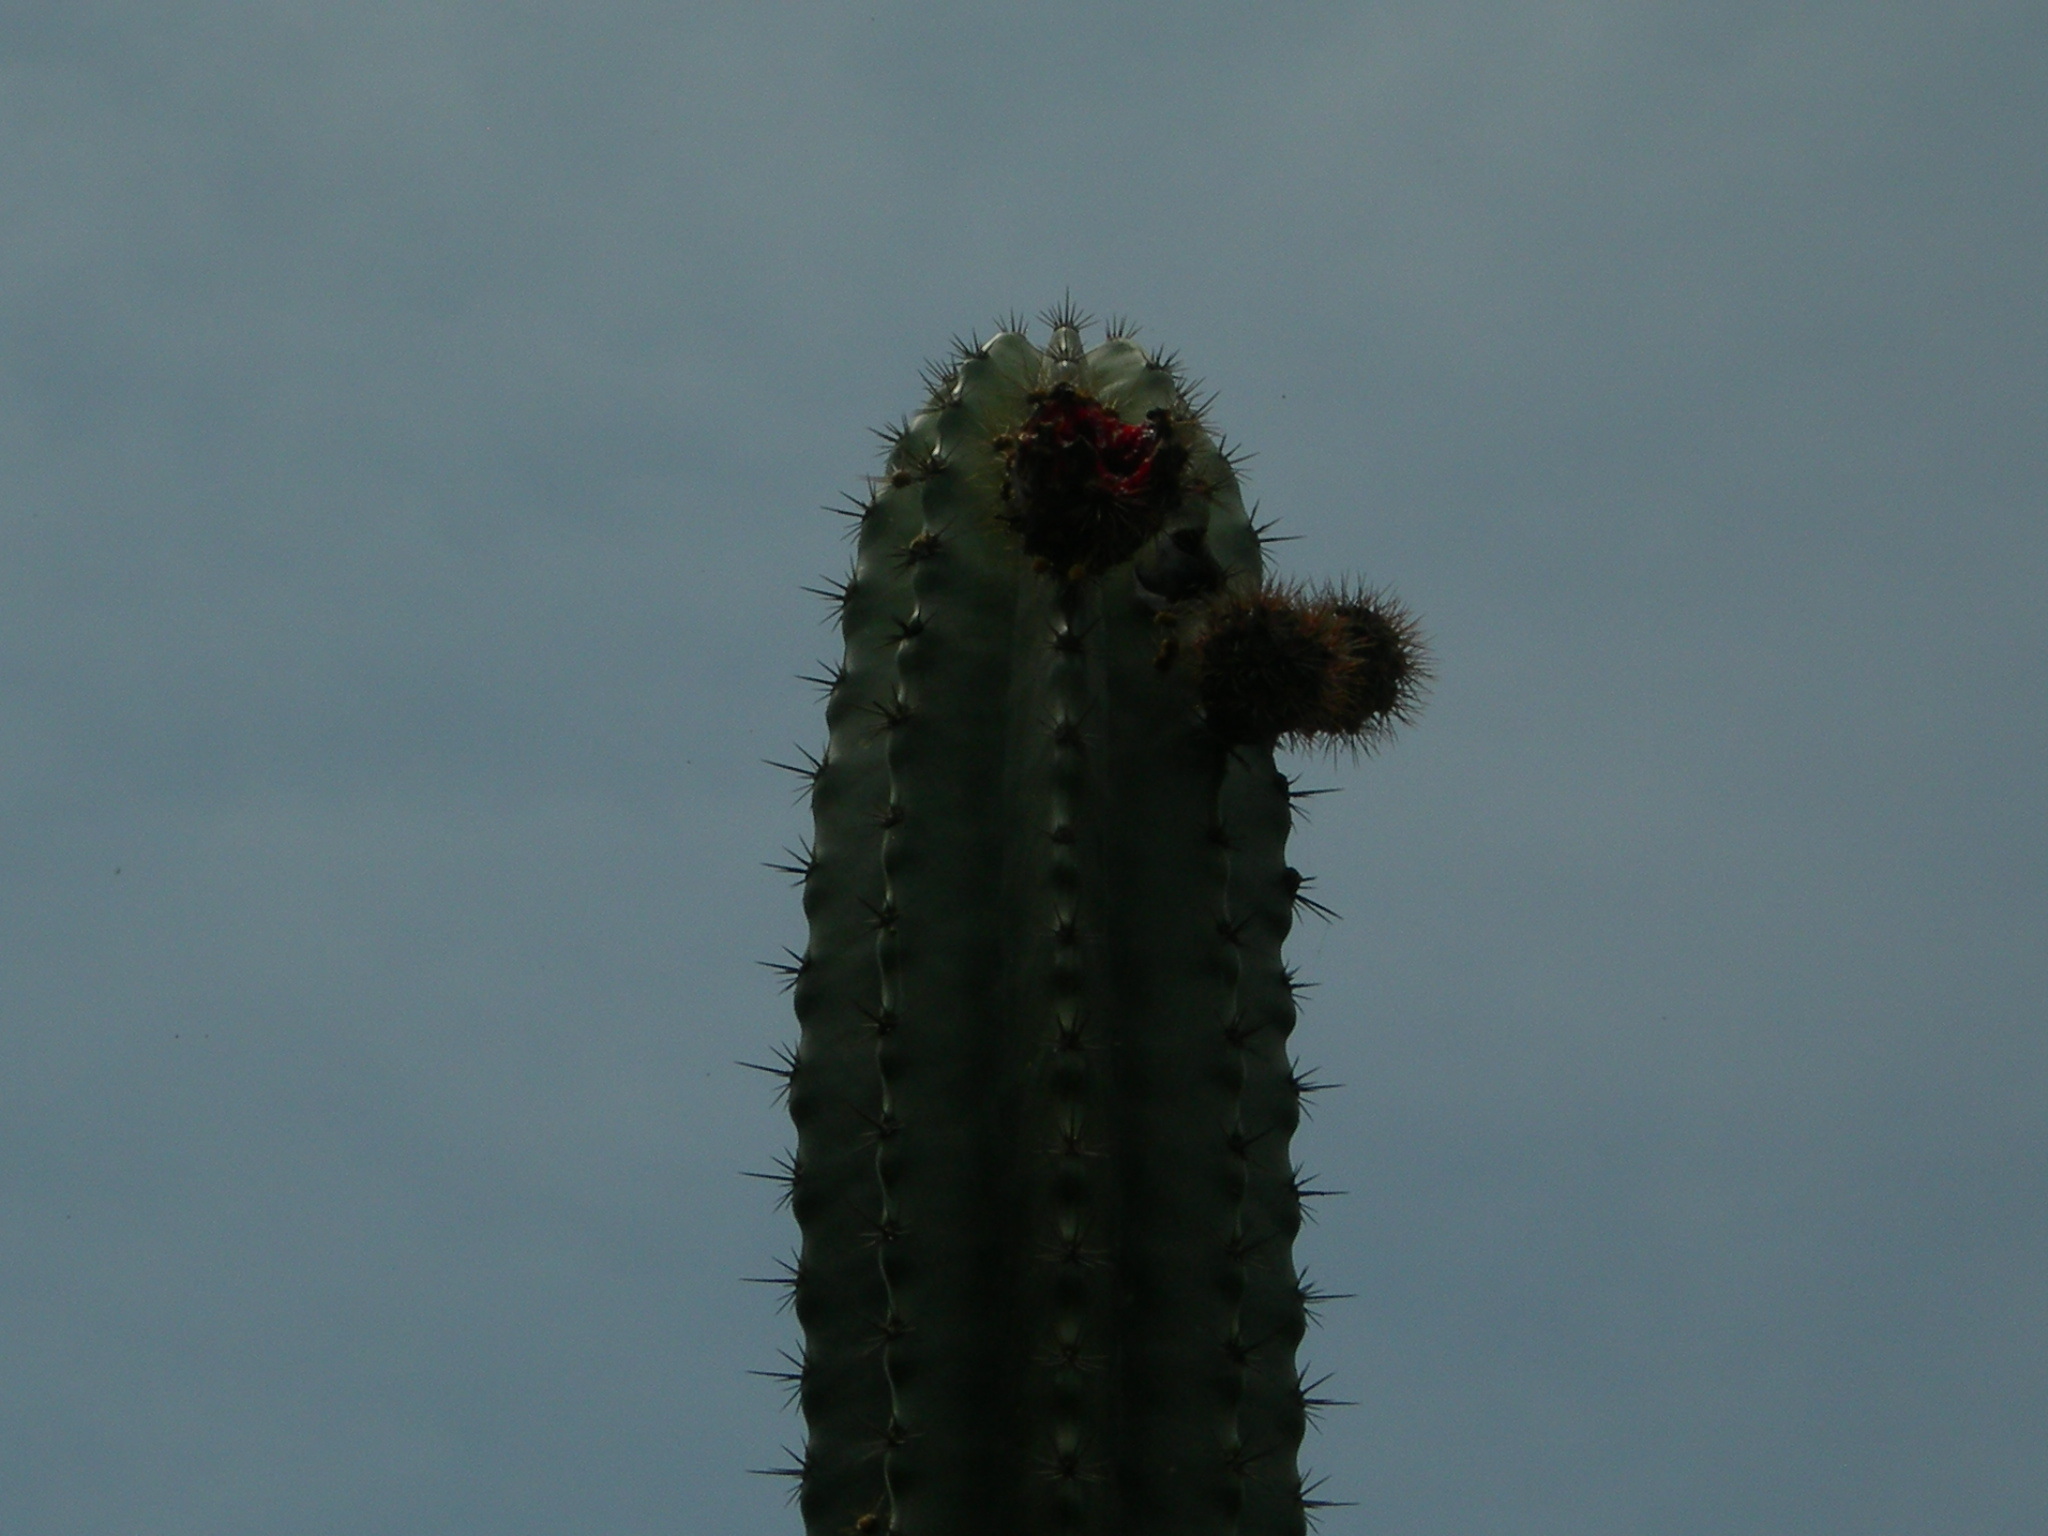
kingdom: Plantae
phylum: Tracheophyta
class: Magnoliopsida
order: Caryophyllales
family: Cactaceae
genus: Stenocereus
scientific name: Stenocereus pruinosus
